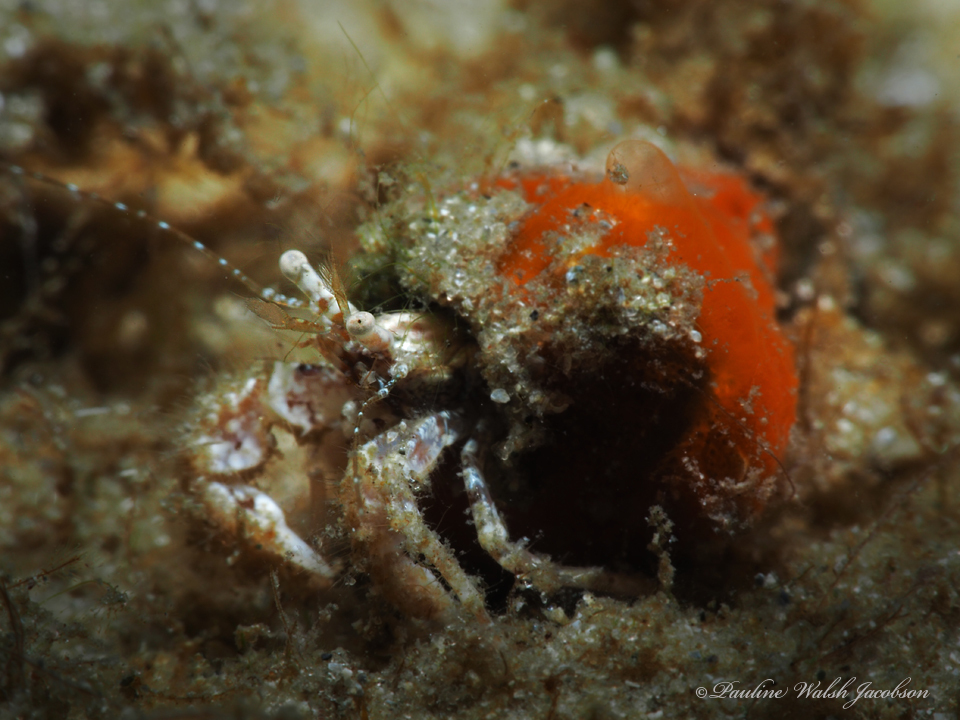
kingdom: Animalia
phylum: Arthropoda
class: Malacostraca
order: Decapoda
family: Paguridae
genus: Pagurus
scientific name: Pagurus maclaughlinae
